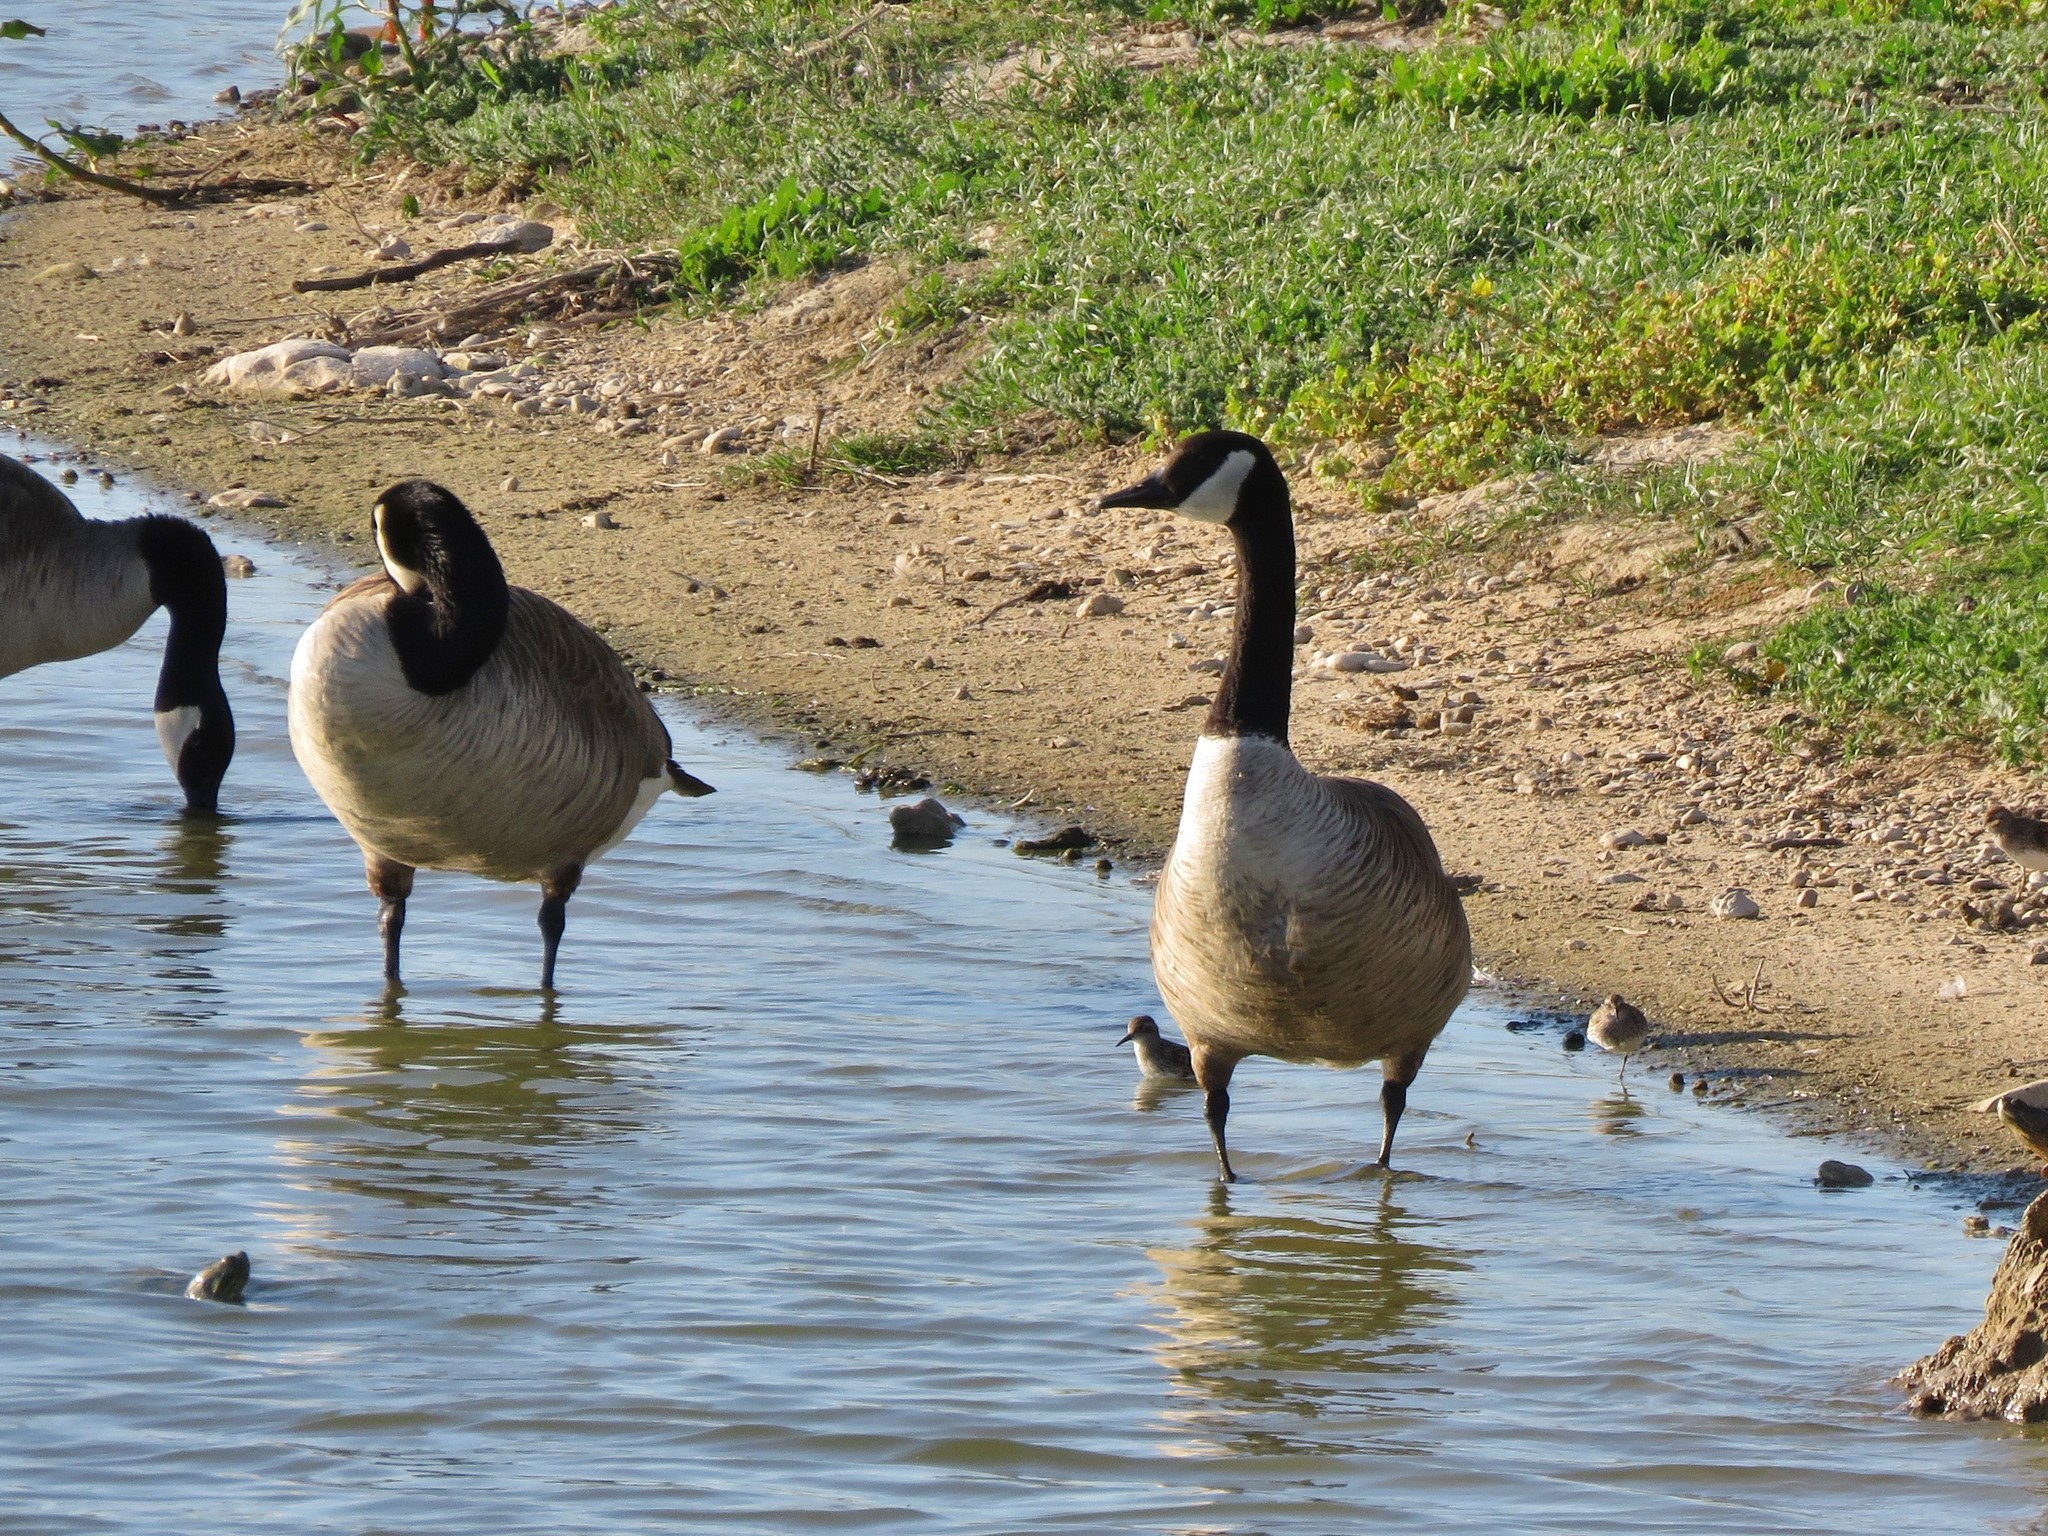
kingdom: Animalia
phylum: Chordata
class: Aves
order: Anseriformes
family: Anatidae
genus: Branta
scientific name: Branta canadensis
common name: Canada goose
